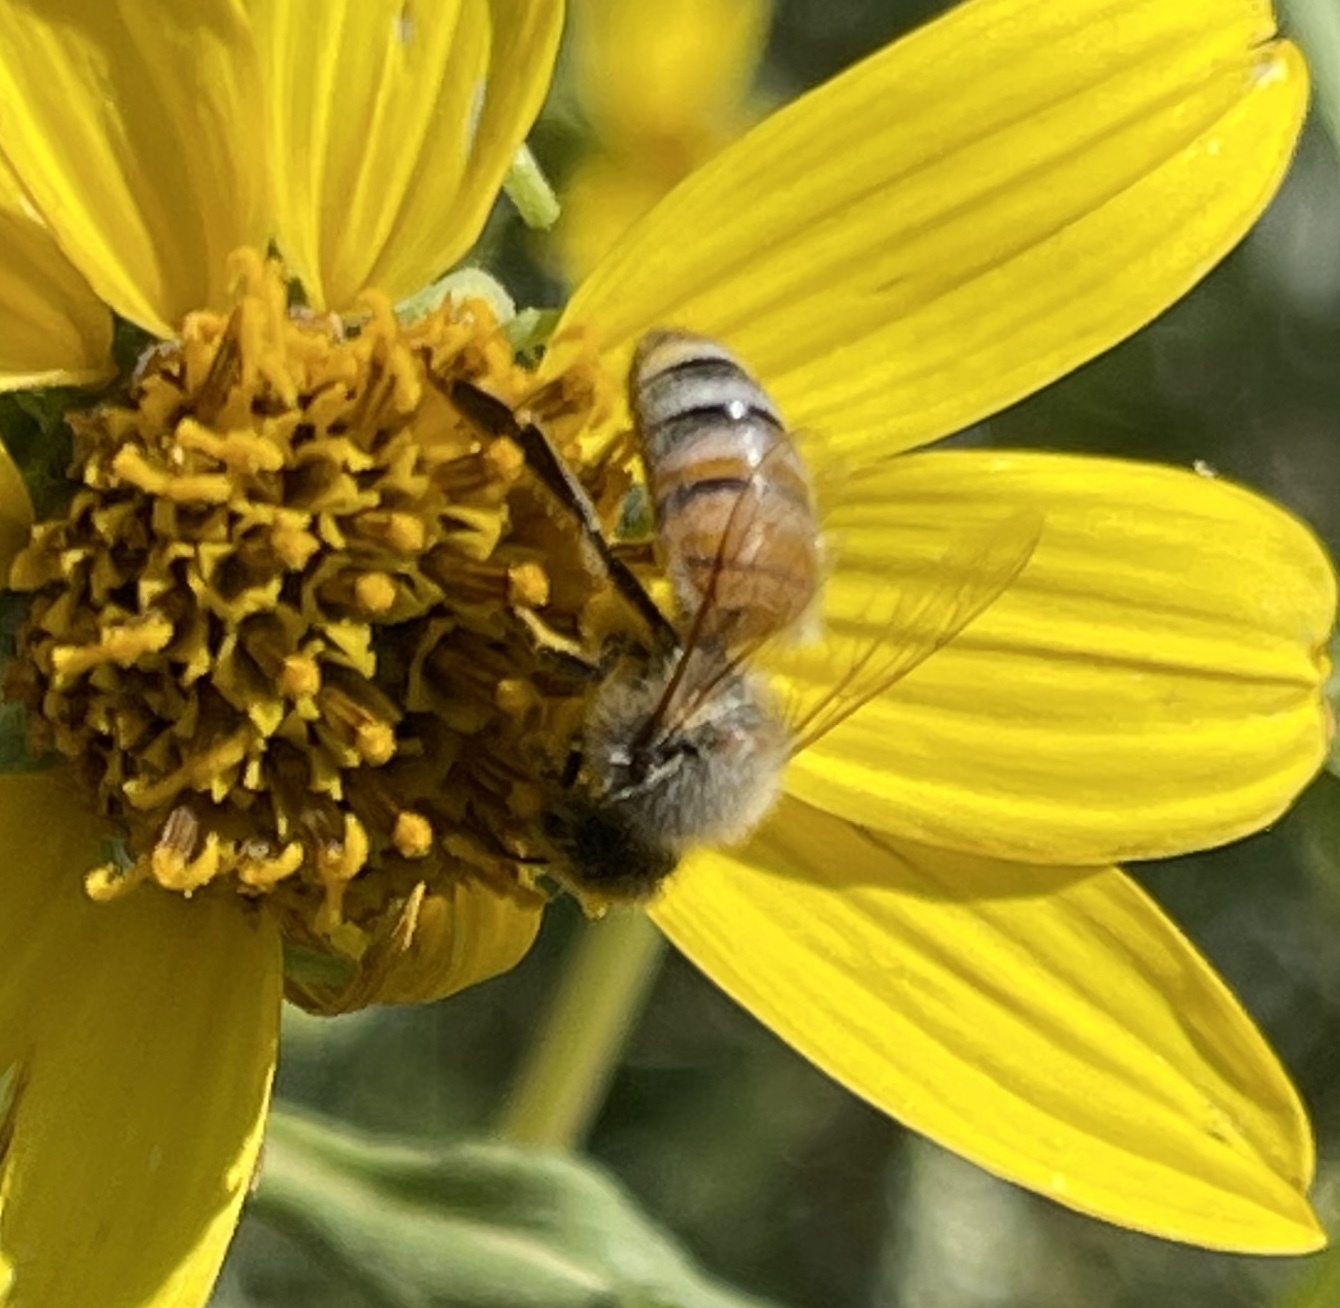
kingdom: Animalia
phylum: Arthropoda
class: Insecta
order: Hymenoptera
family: Apidae
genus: Apis
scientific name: Apis mellifera
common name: Honey bee
